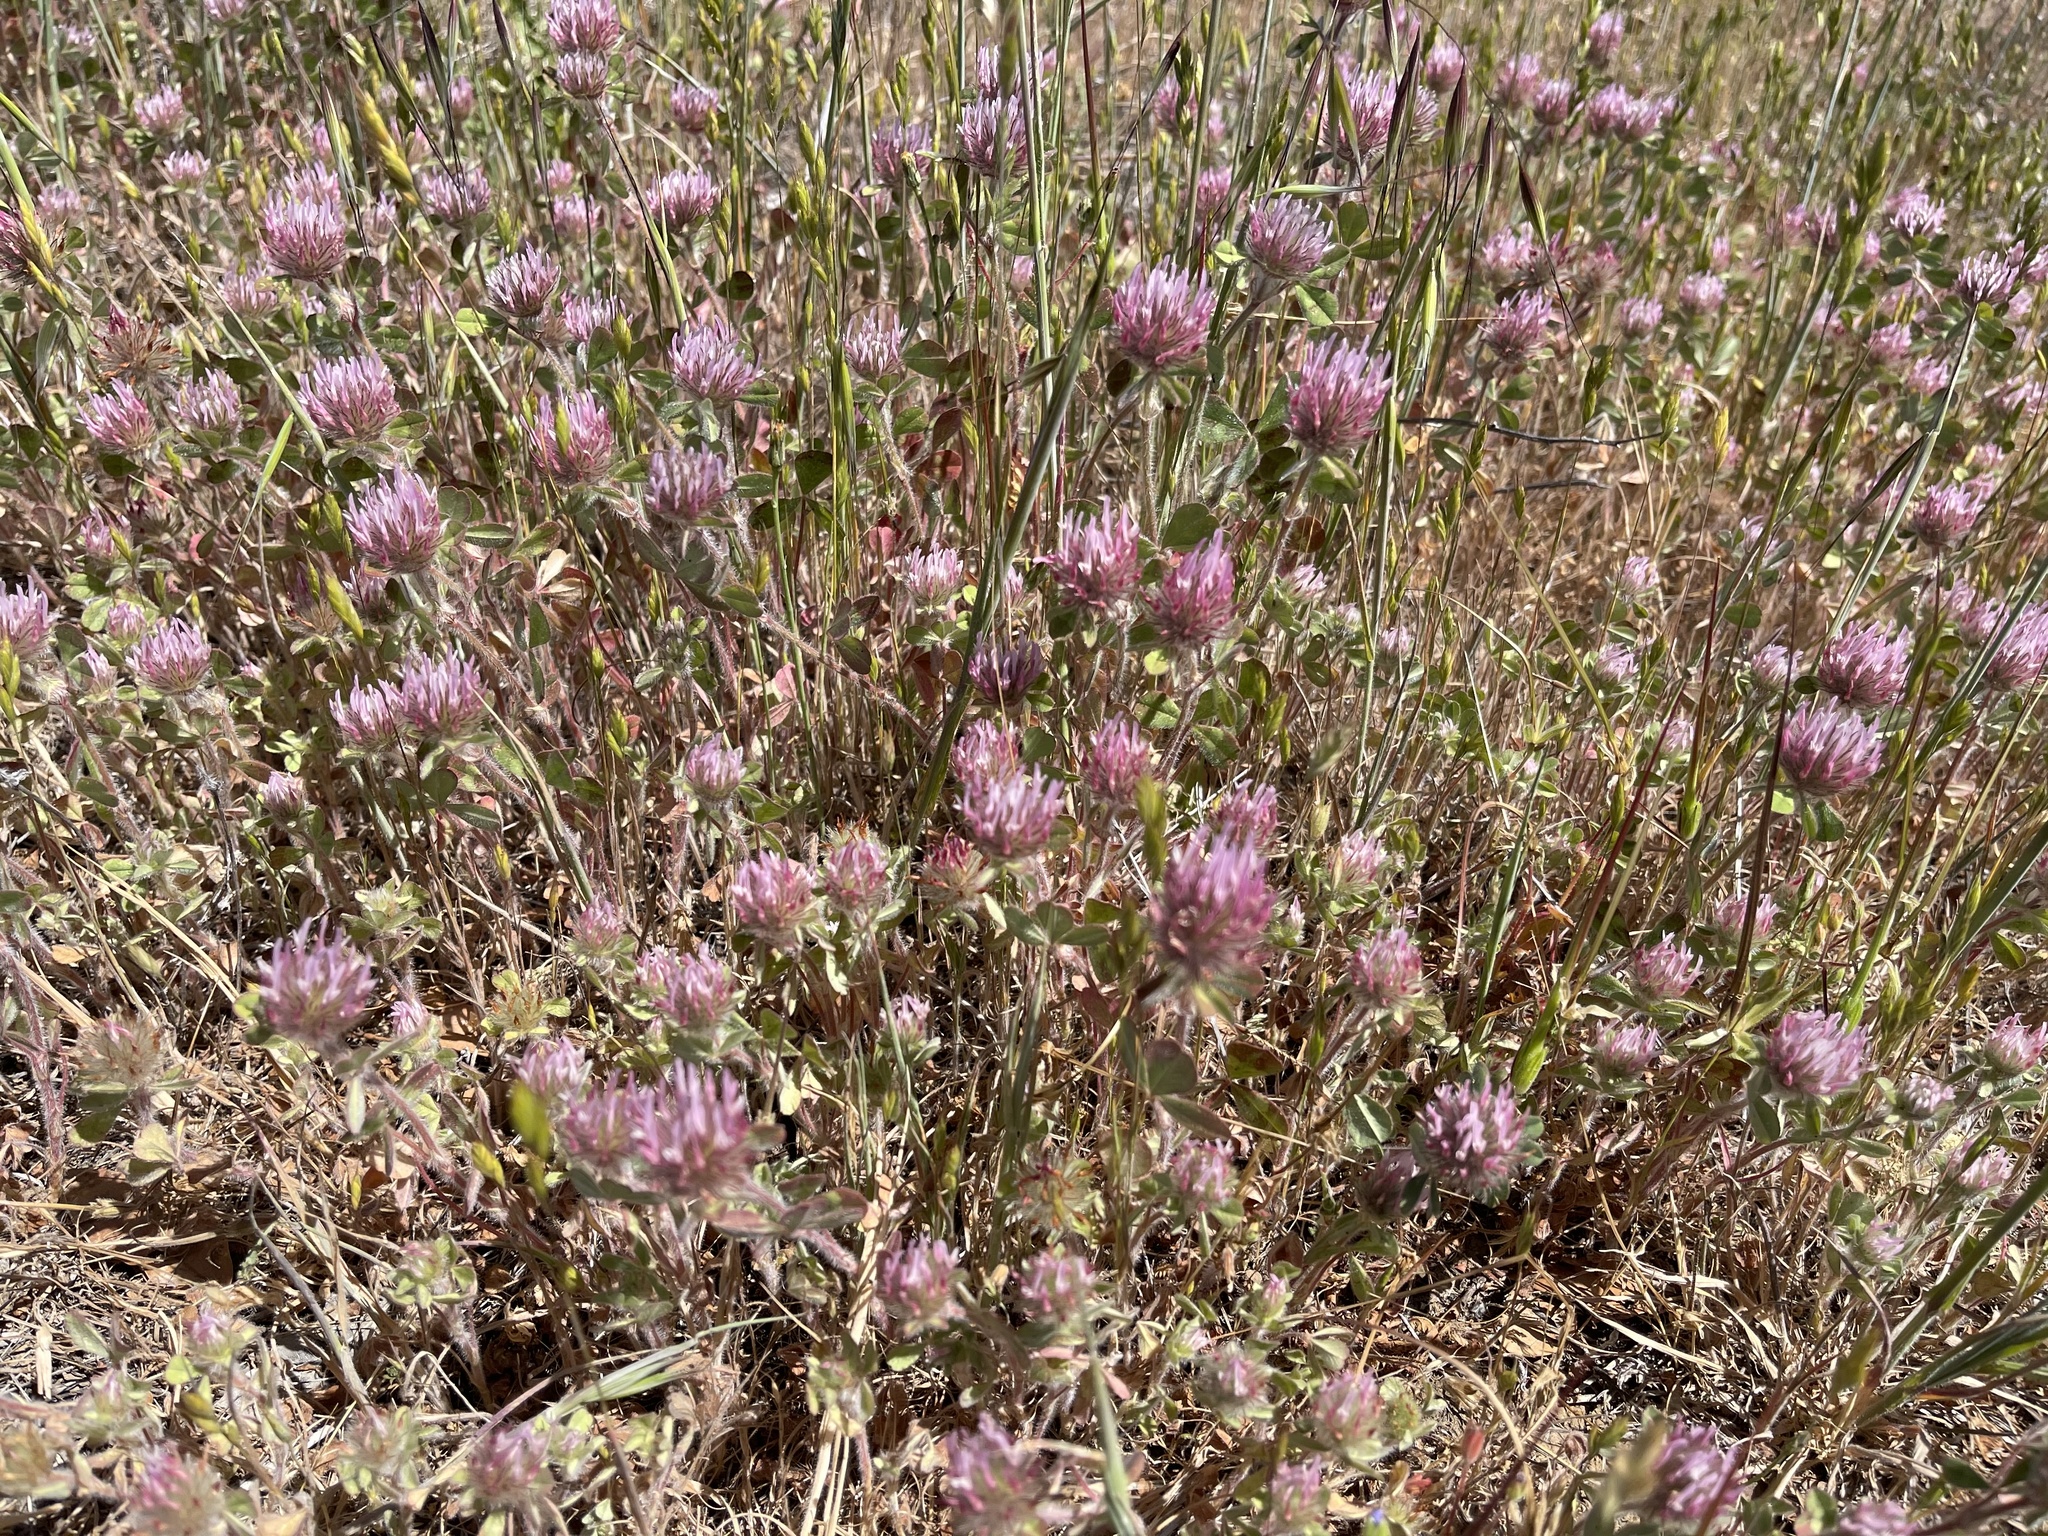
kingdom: Plantae
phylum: Tracheophyta
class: Magnoliopsida
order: Fabales
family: Fabaceae
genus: Trifolium
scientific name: Trifolium hirtum
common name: Rose clover
